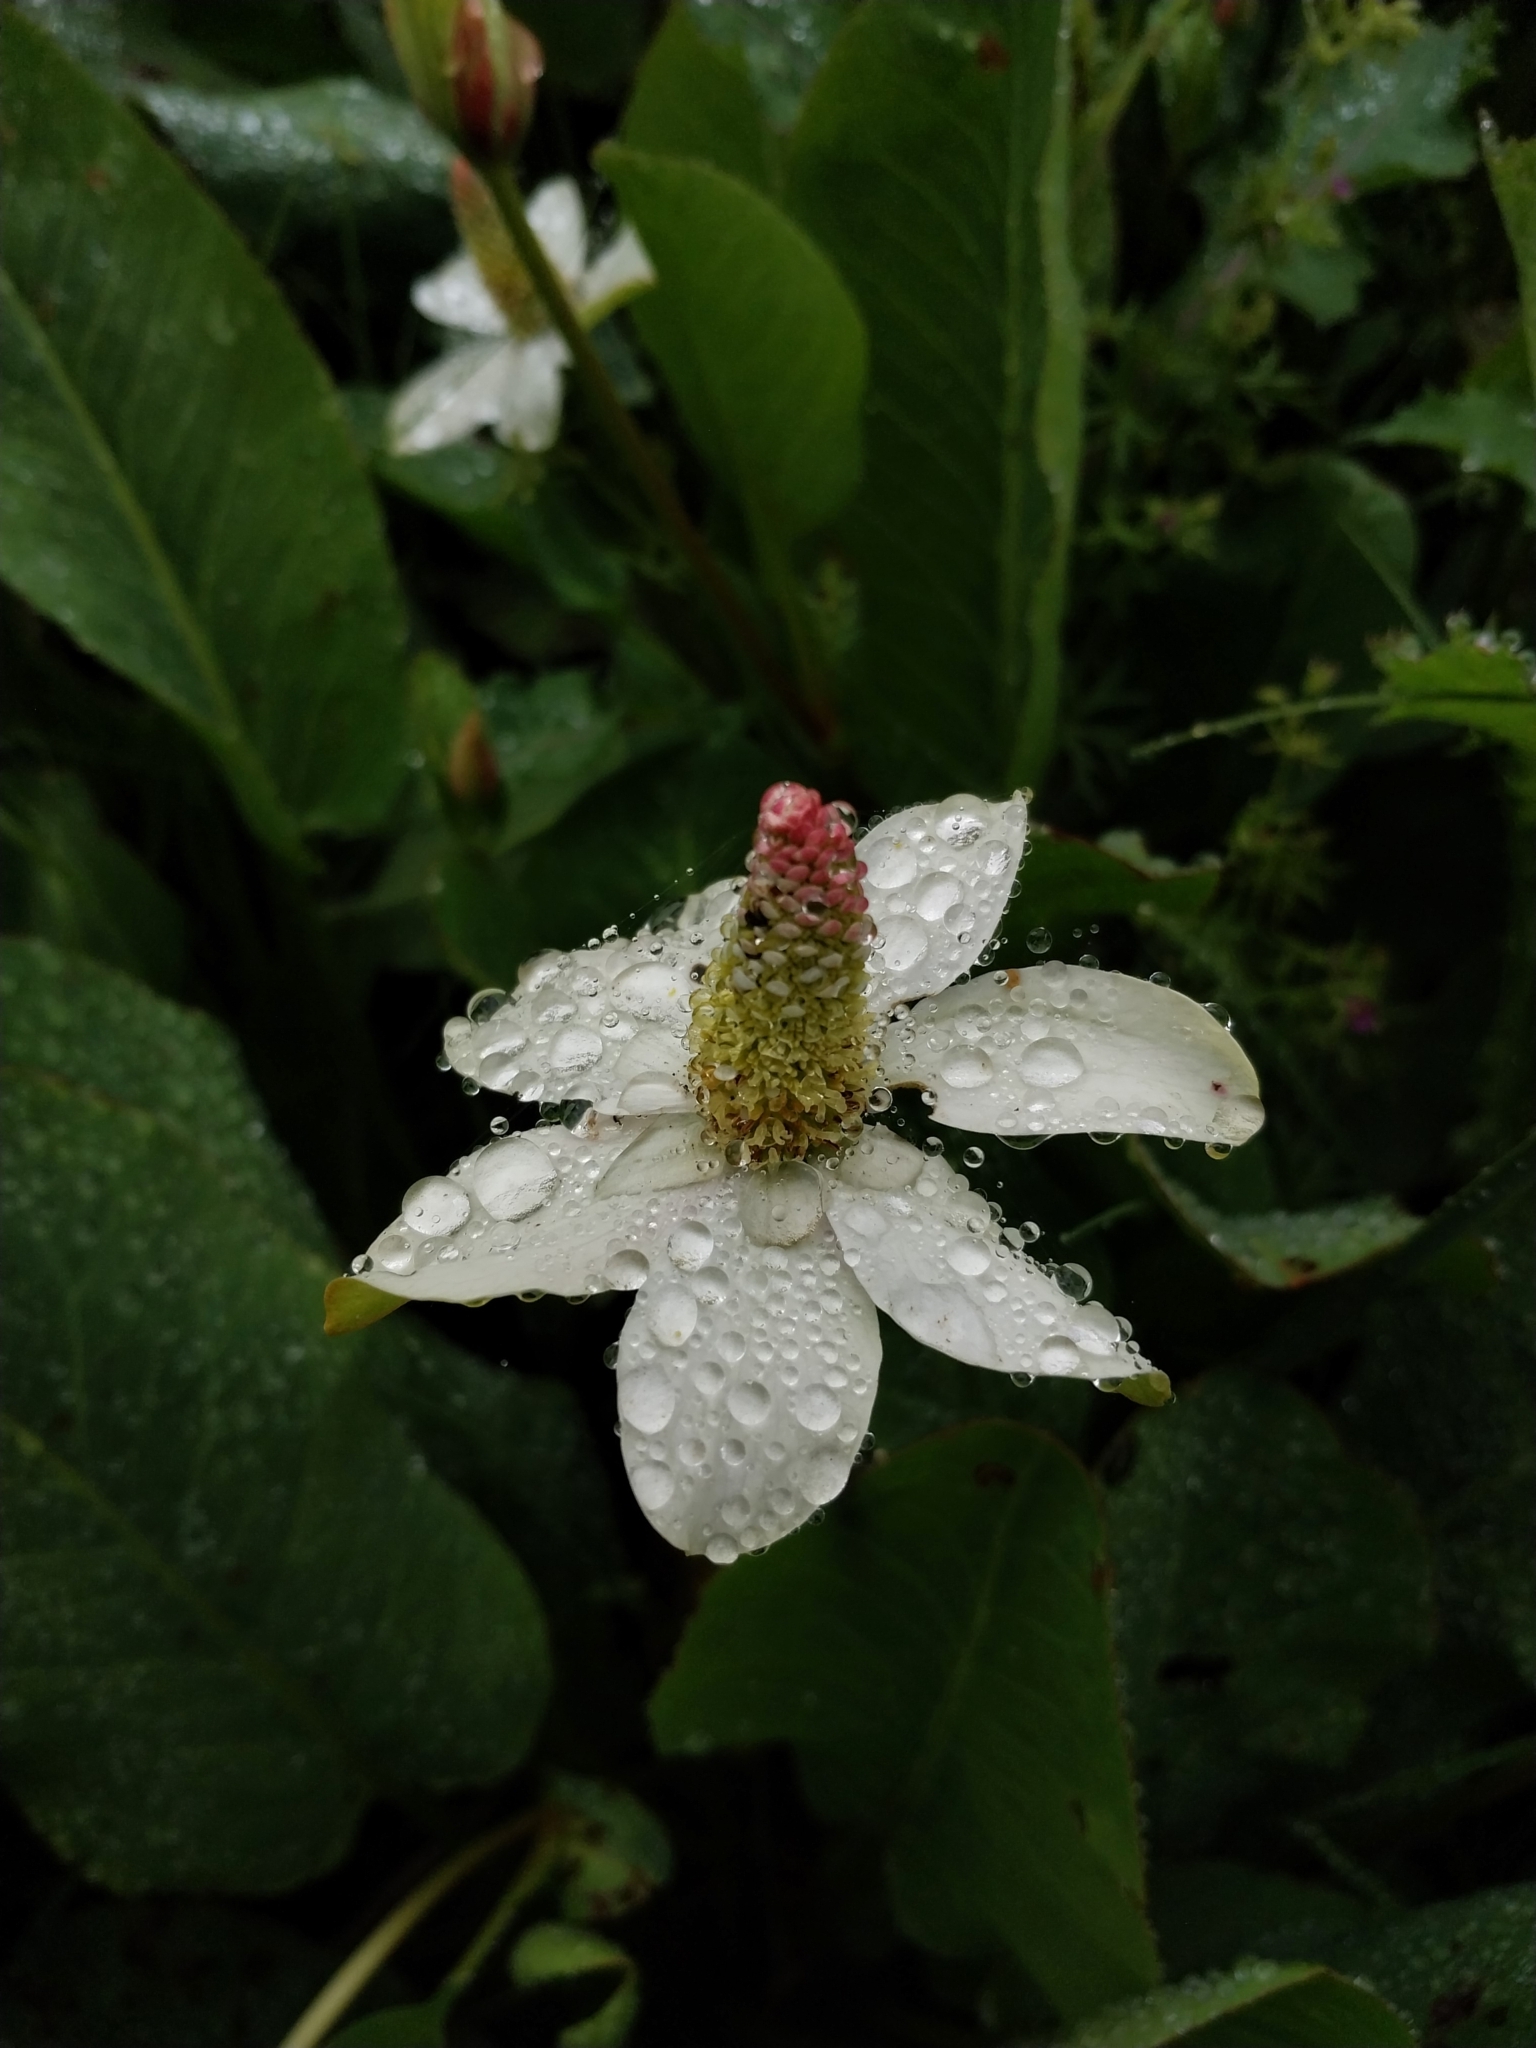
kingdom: Plantae
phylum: Tracheophyta
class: Magnoliopsida
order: Piperales
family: Saururaceae
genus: Anemopsis
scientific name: Anemopsis californica
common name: Apache-beads
